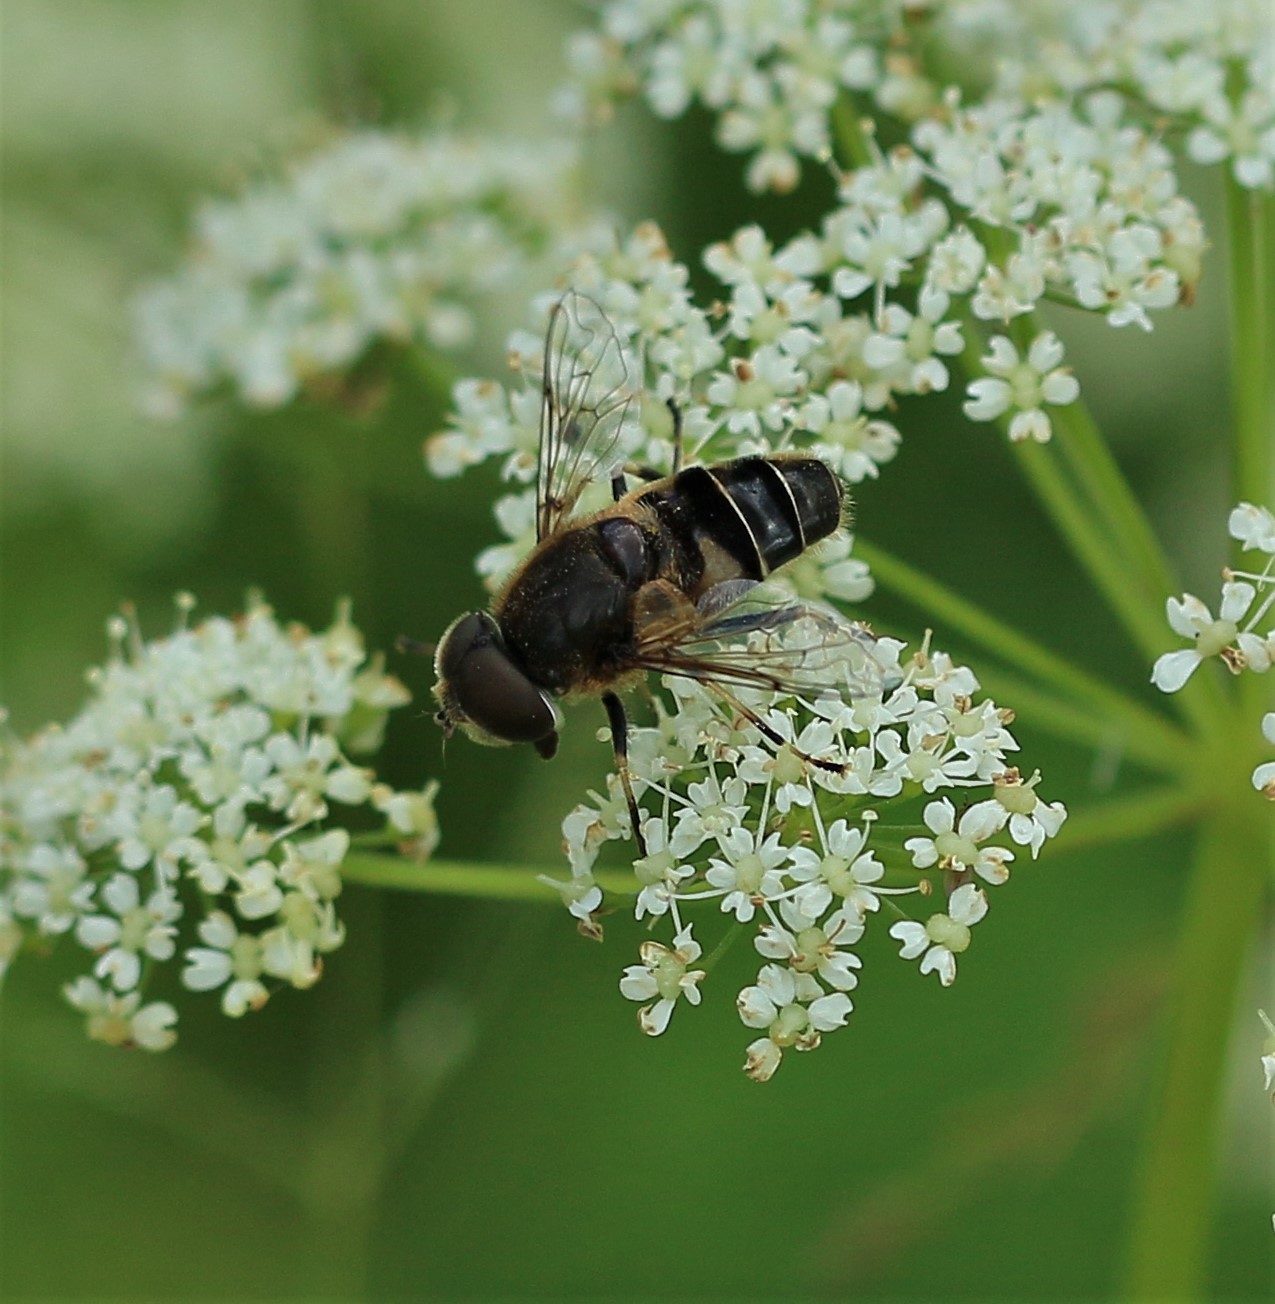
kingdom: Animalia
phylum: Arthropoda
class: Insecta
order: Diptera
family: Syrphidae
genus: Eristalis
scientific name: Eristalis nemorum
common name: Orange-spined drone fly
